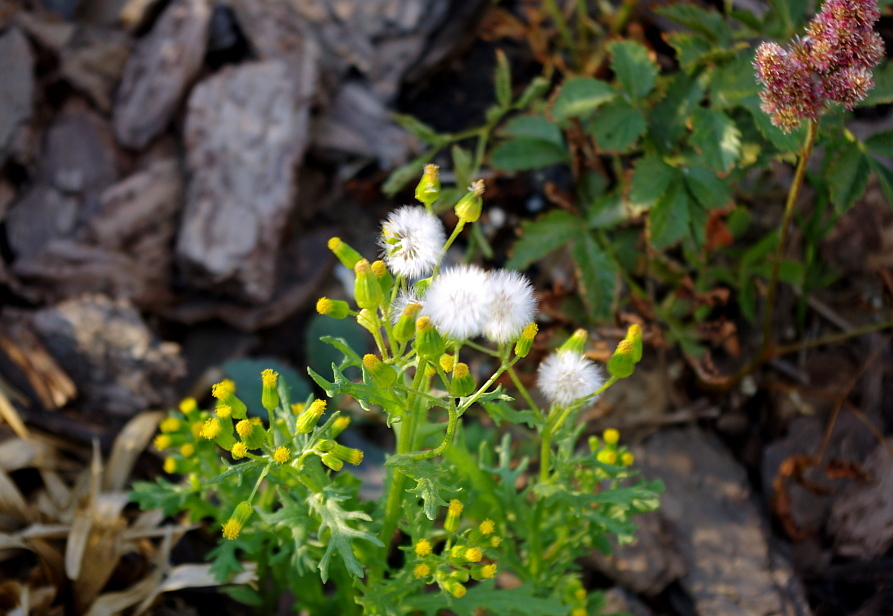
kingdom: Plantae
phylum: Tracheophyta
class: Magnoliopsida
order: Asterales
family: Asteraceae
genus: Senecio
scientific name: Senecio vulgaris
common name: Old-man-in-the-spring
